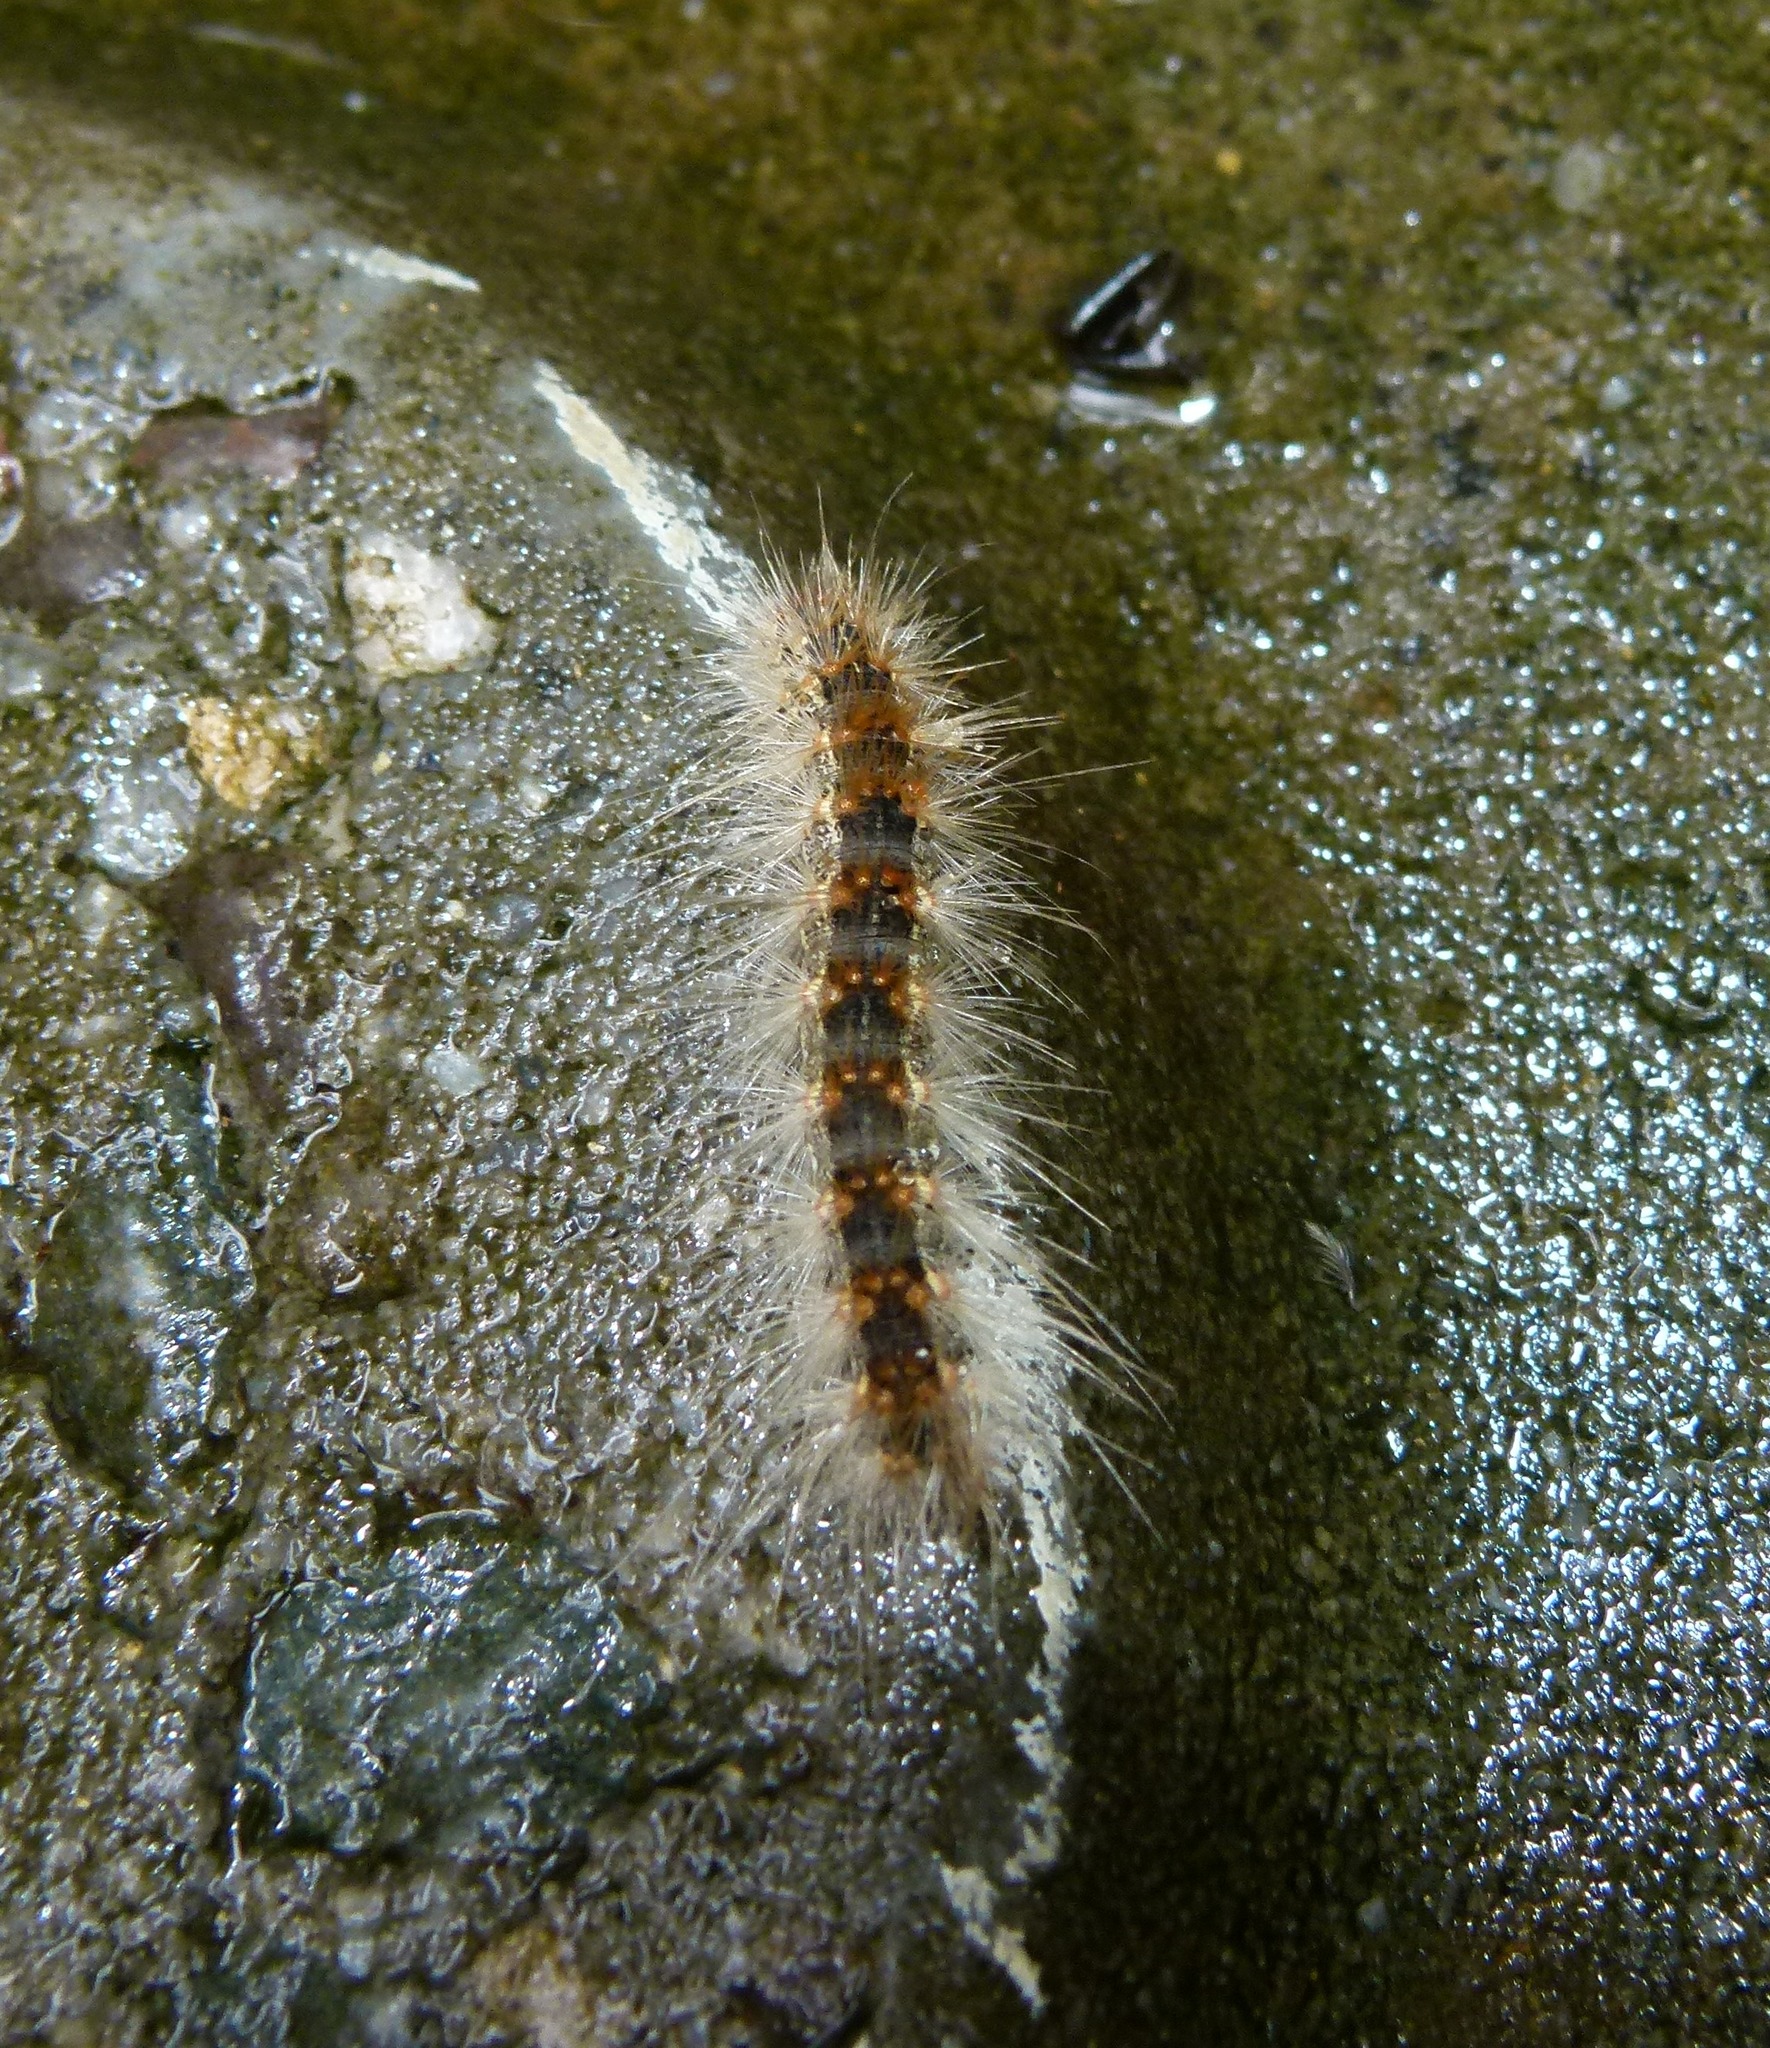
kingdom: Animalia
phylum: Arthropoda
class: Insecta
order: Lepidoptera
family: Erebidae
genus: Hyphantria
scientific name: Hyphantria cunea
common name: American white moth
